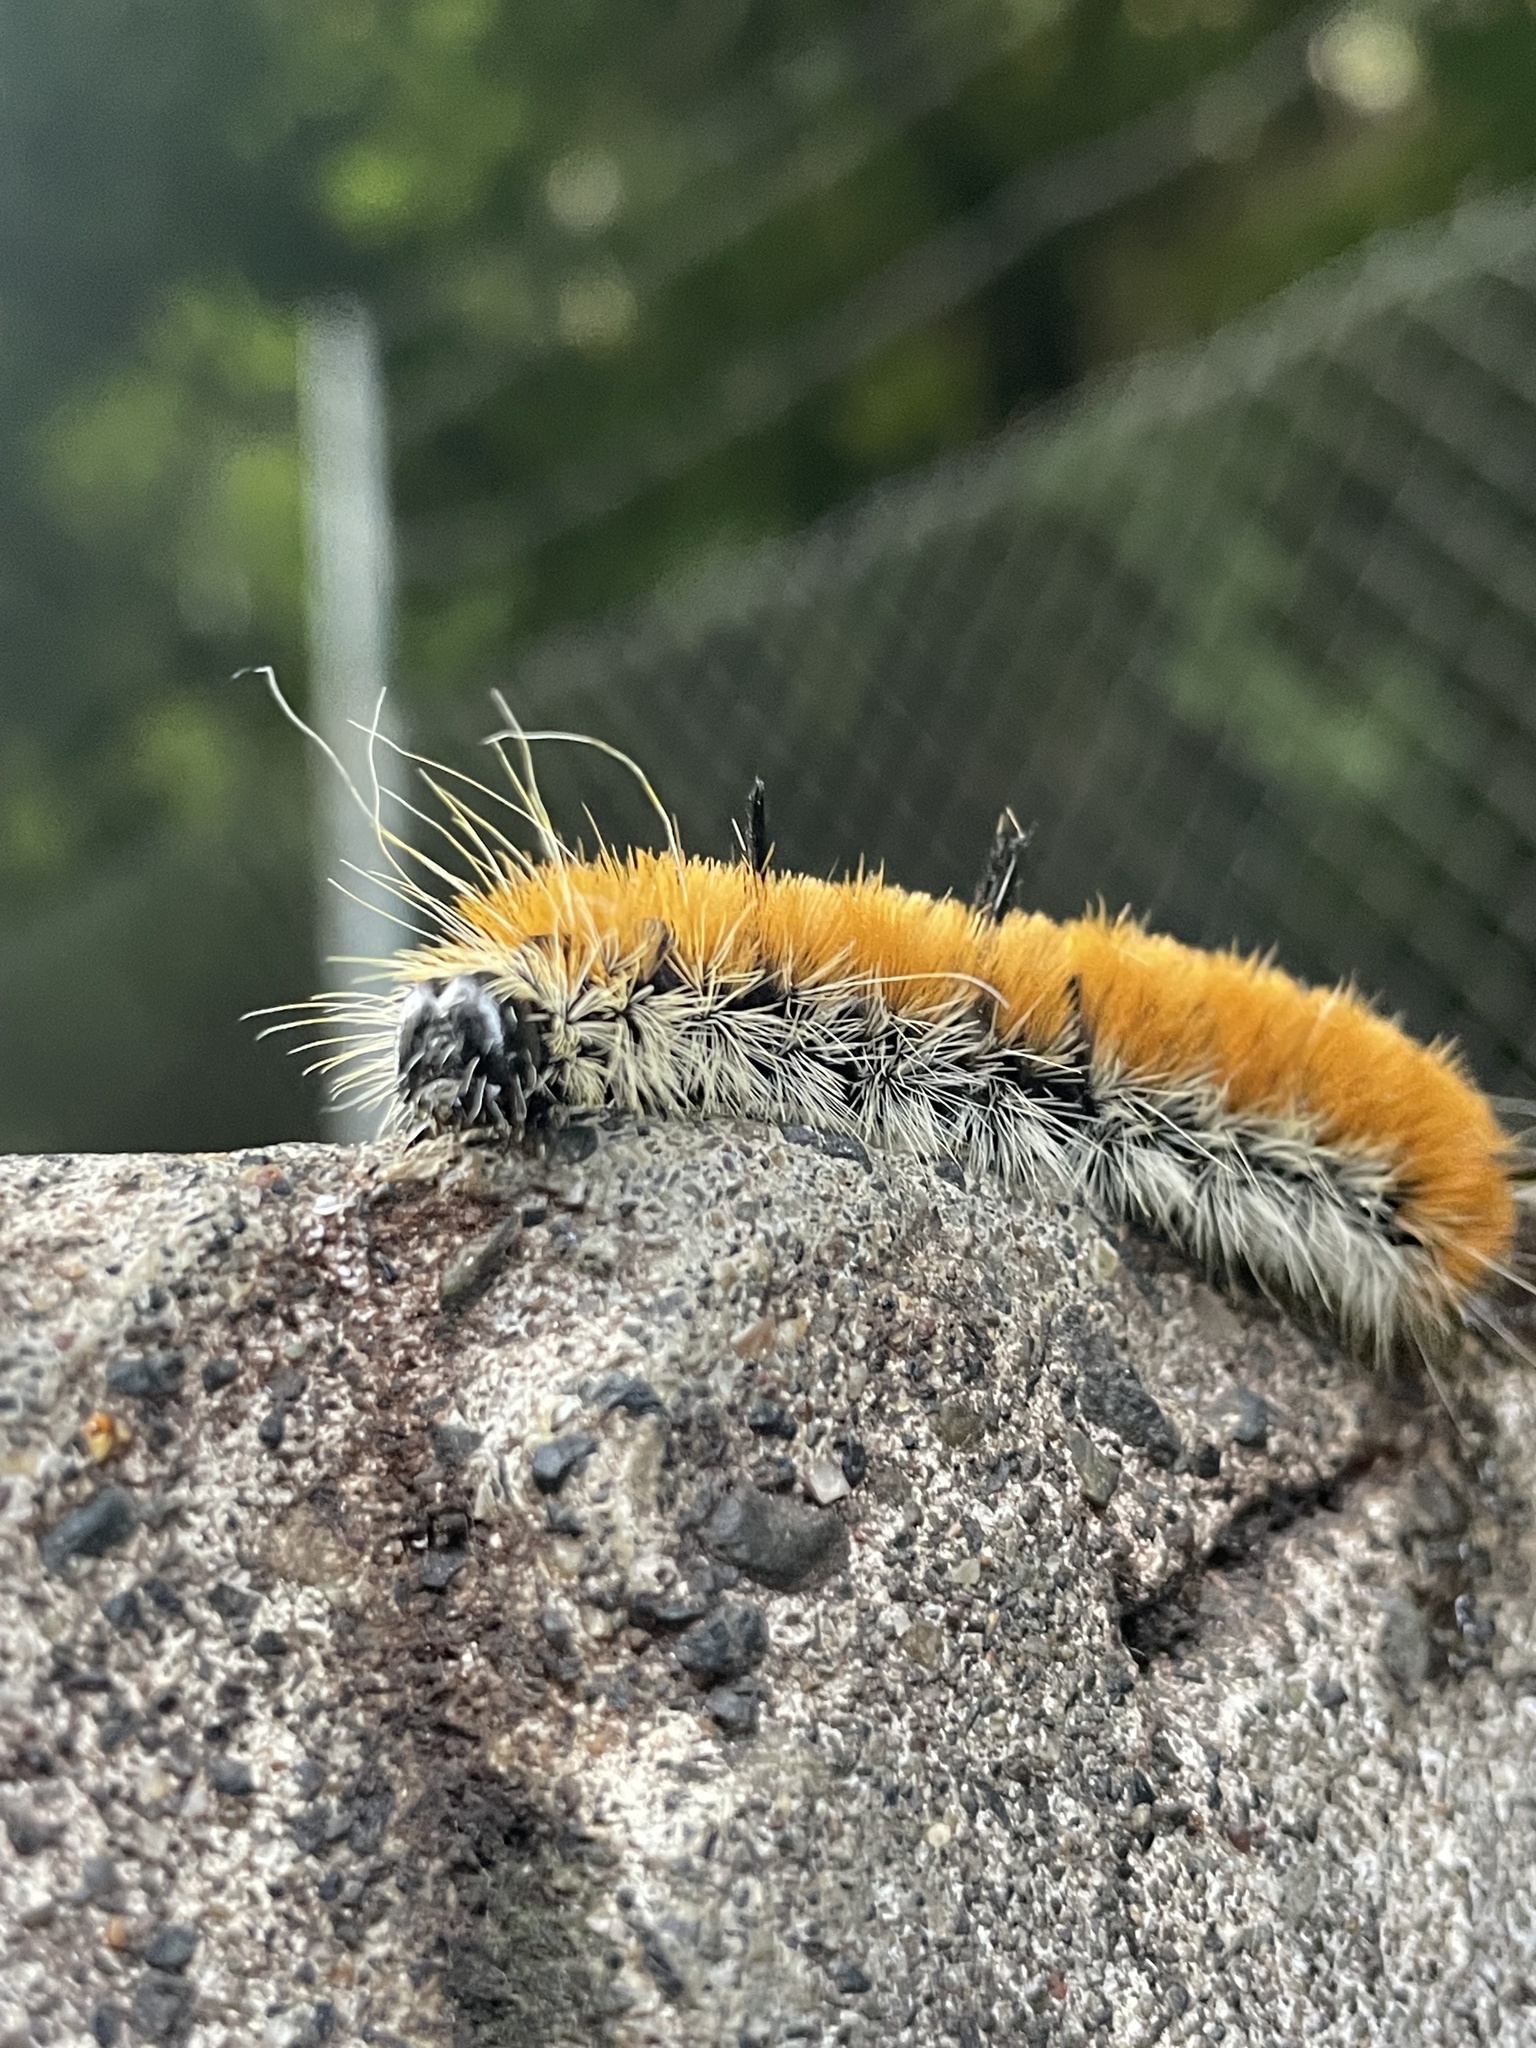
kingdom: Animalia
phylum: Arthropoda
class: Insecta
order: Lepidoptera
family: Noctuidae
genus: Acronicta
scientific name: Acronicta insita
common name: Large gray dagger
